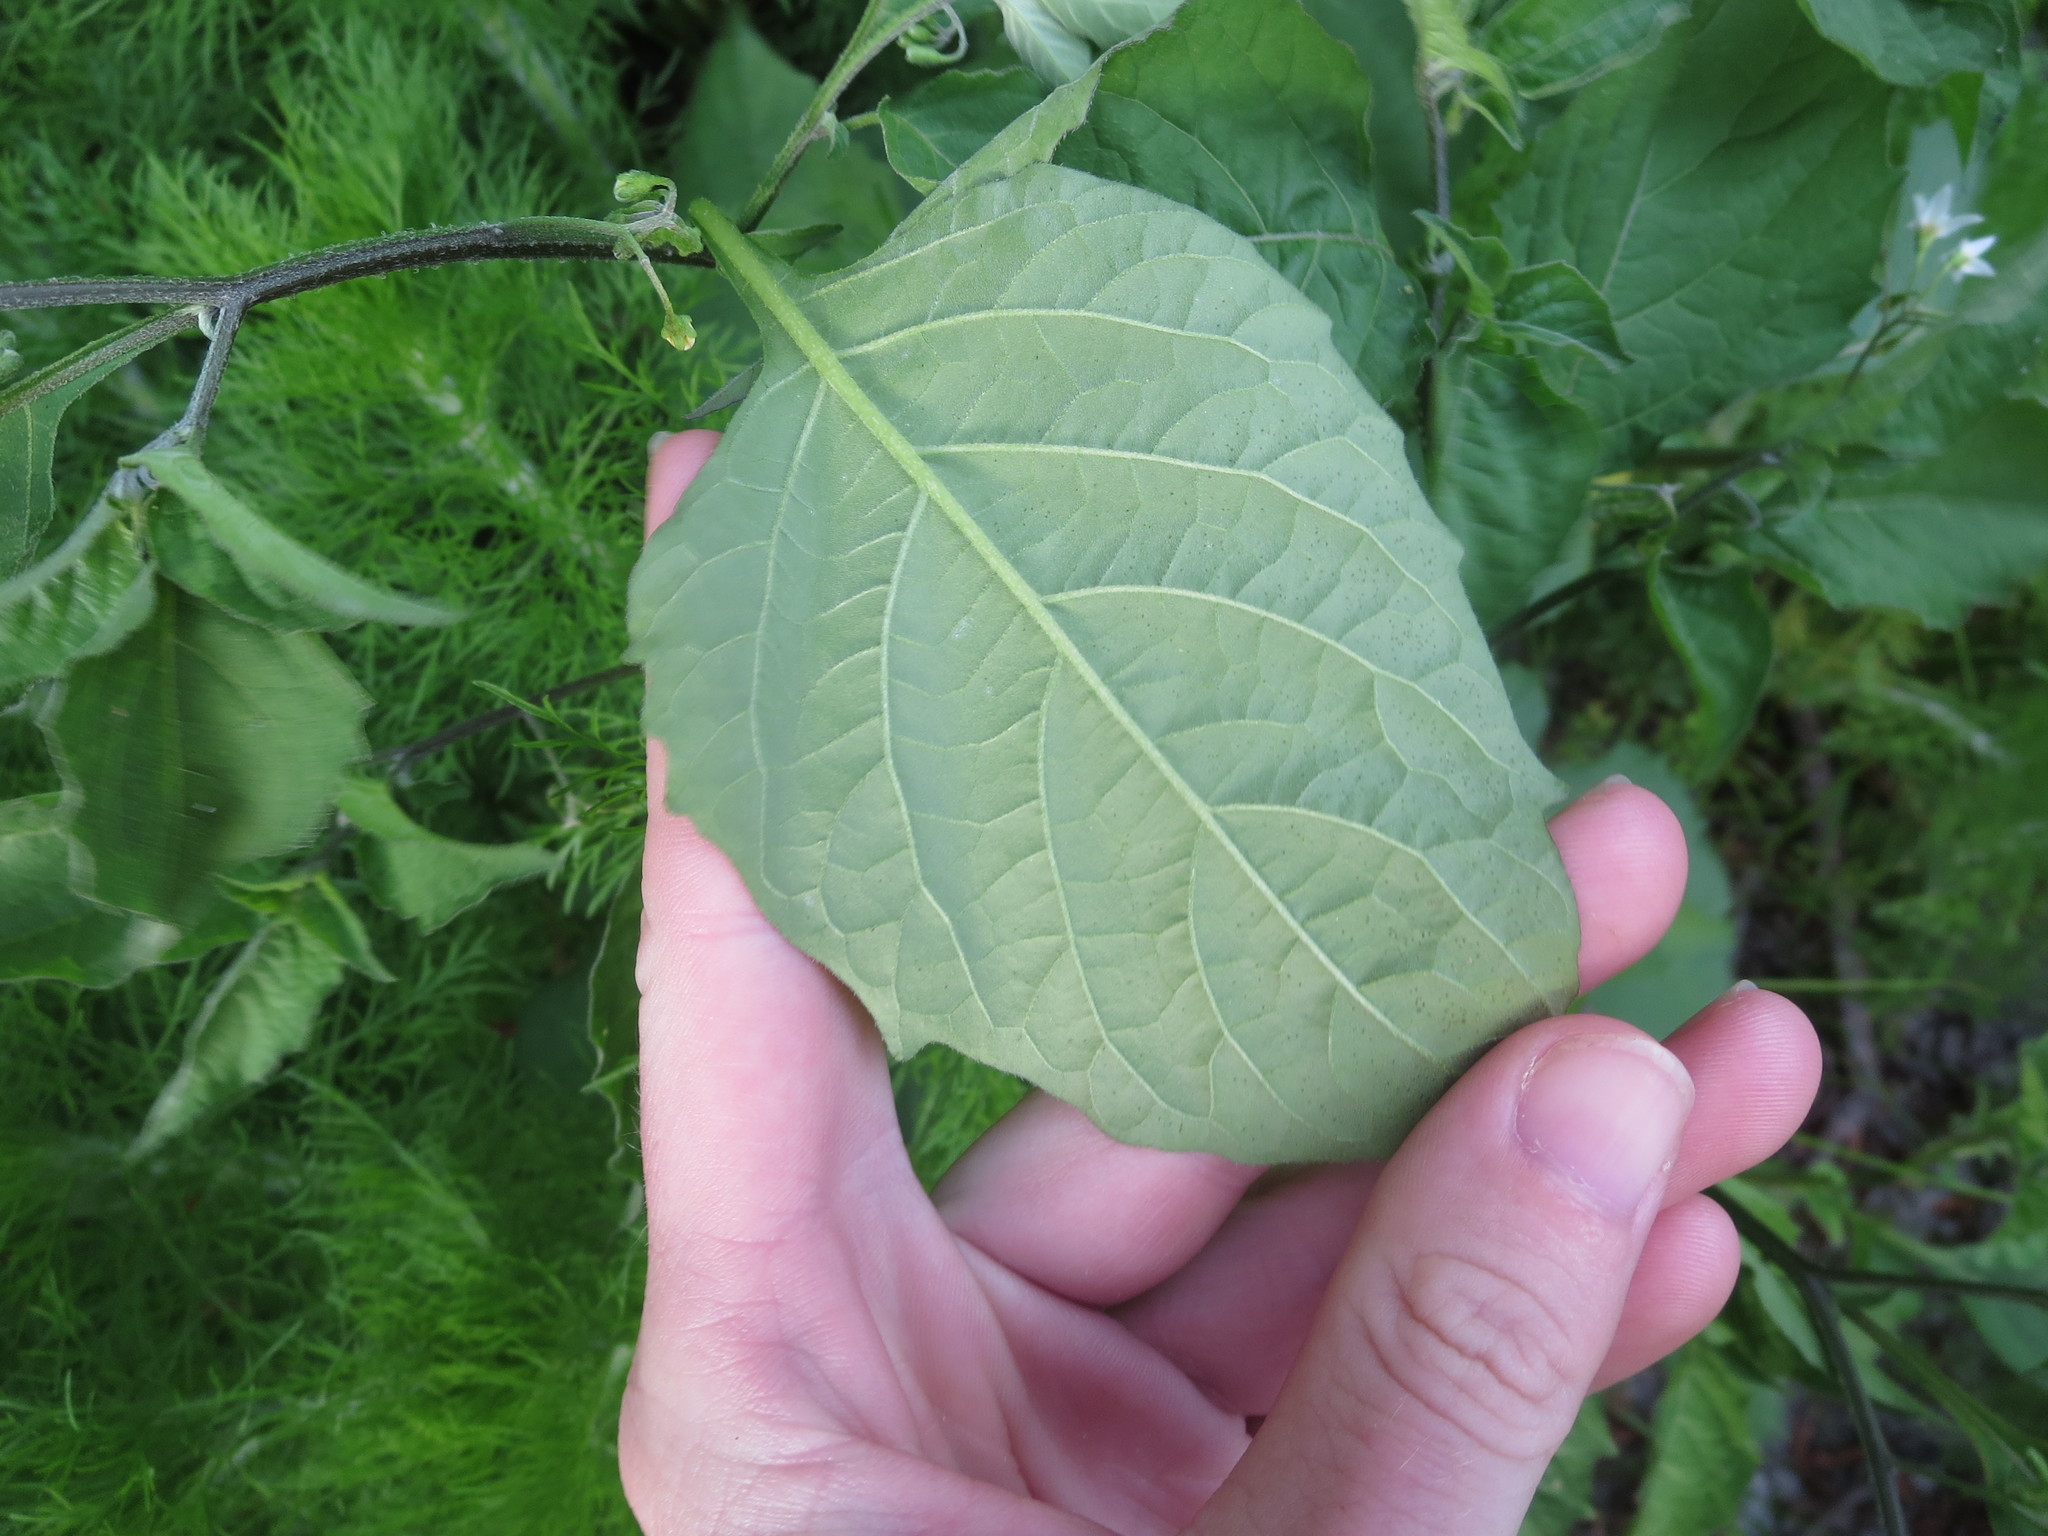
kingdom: Plantae
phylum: Tracheophyta
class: Magnoliopsida
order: Solanales
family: Solanaceae
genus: Solanum
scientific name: Solanum emulans
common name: Eastern black nightshade
